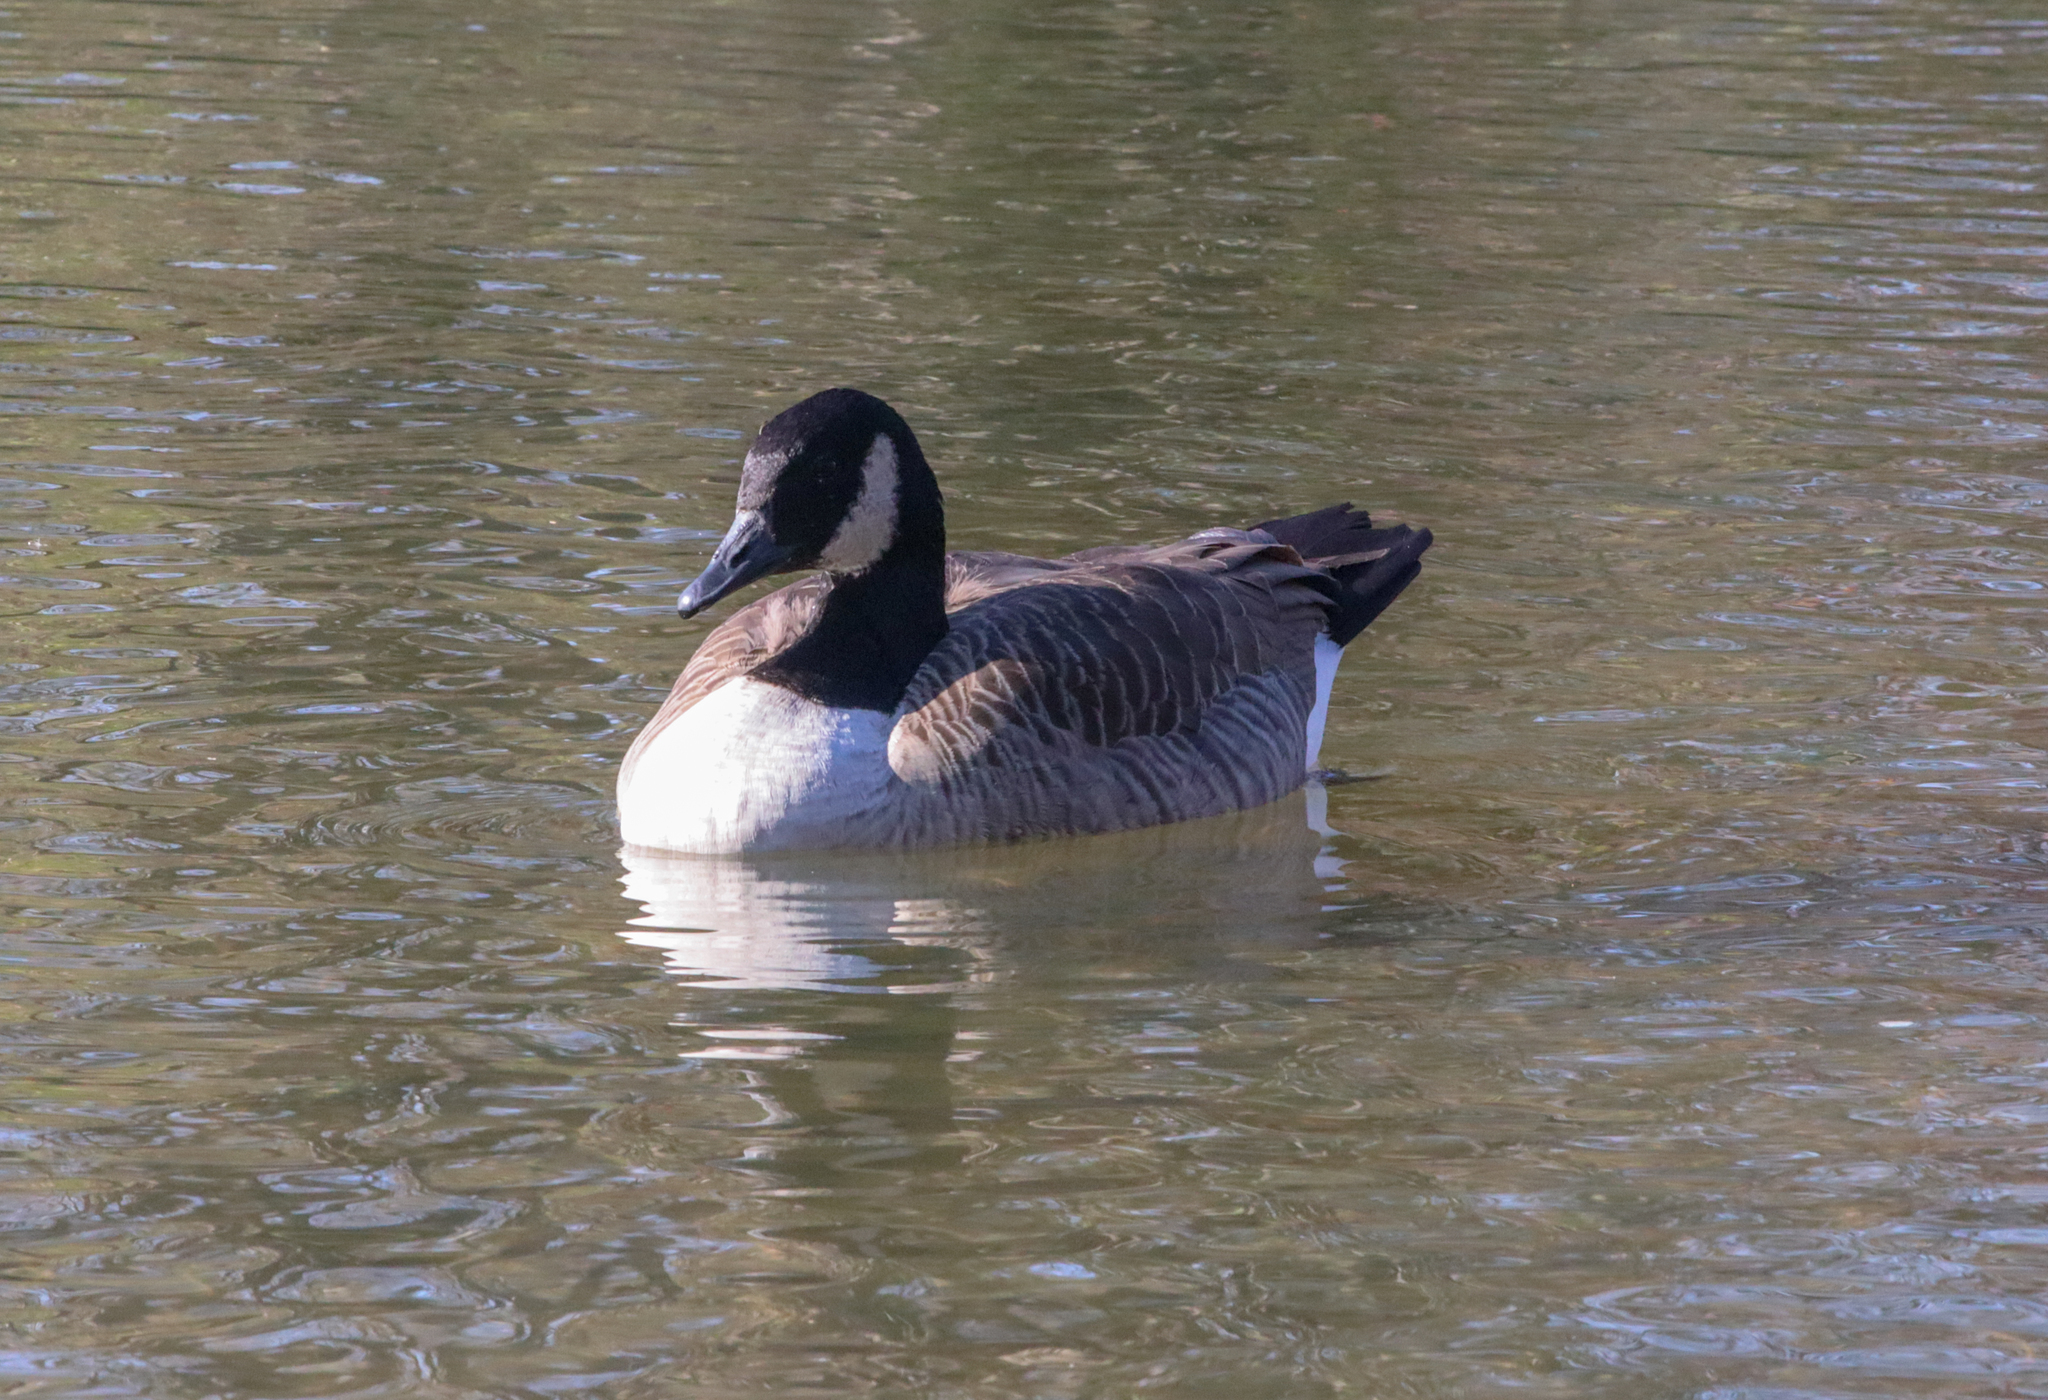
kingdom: Animalia
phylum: Chordata
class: Aves
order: Anseriformes
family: Anatidae
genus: Branta
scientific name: Branta canadensis
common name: Canada goose
